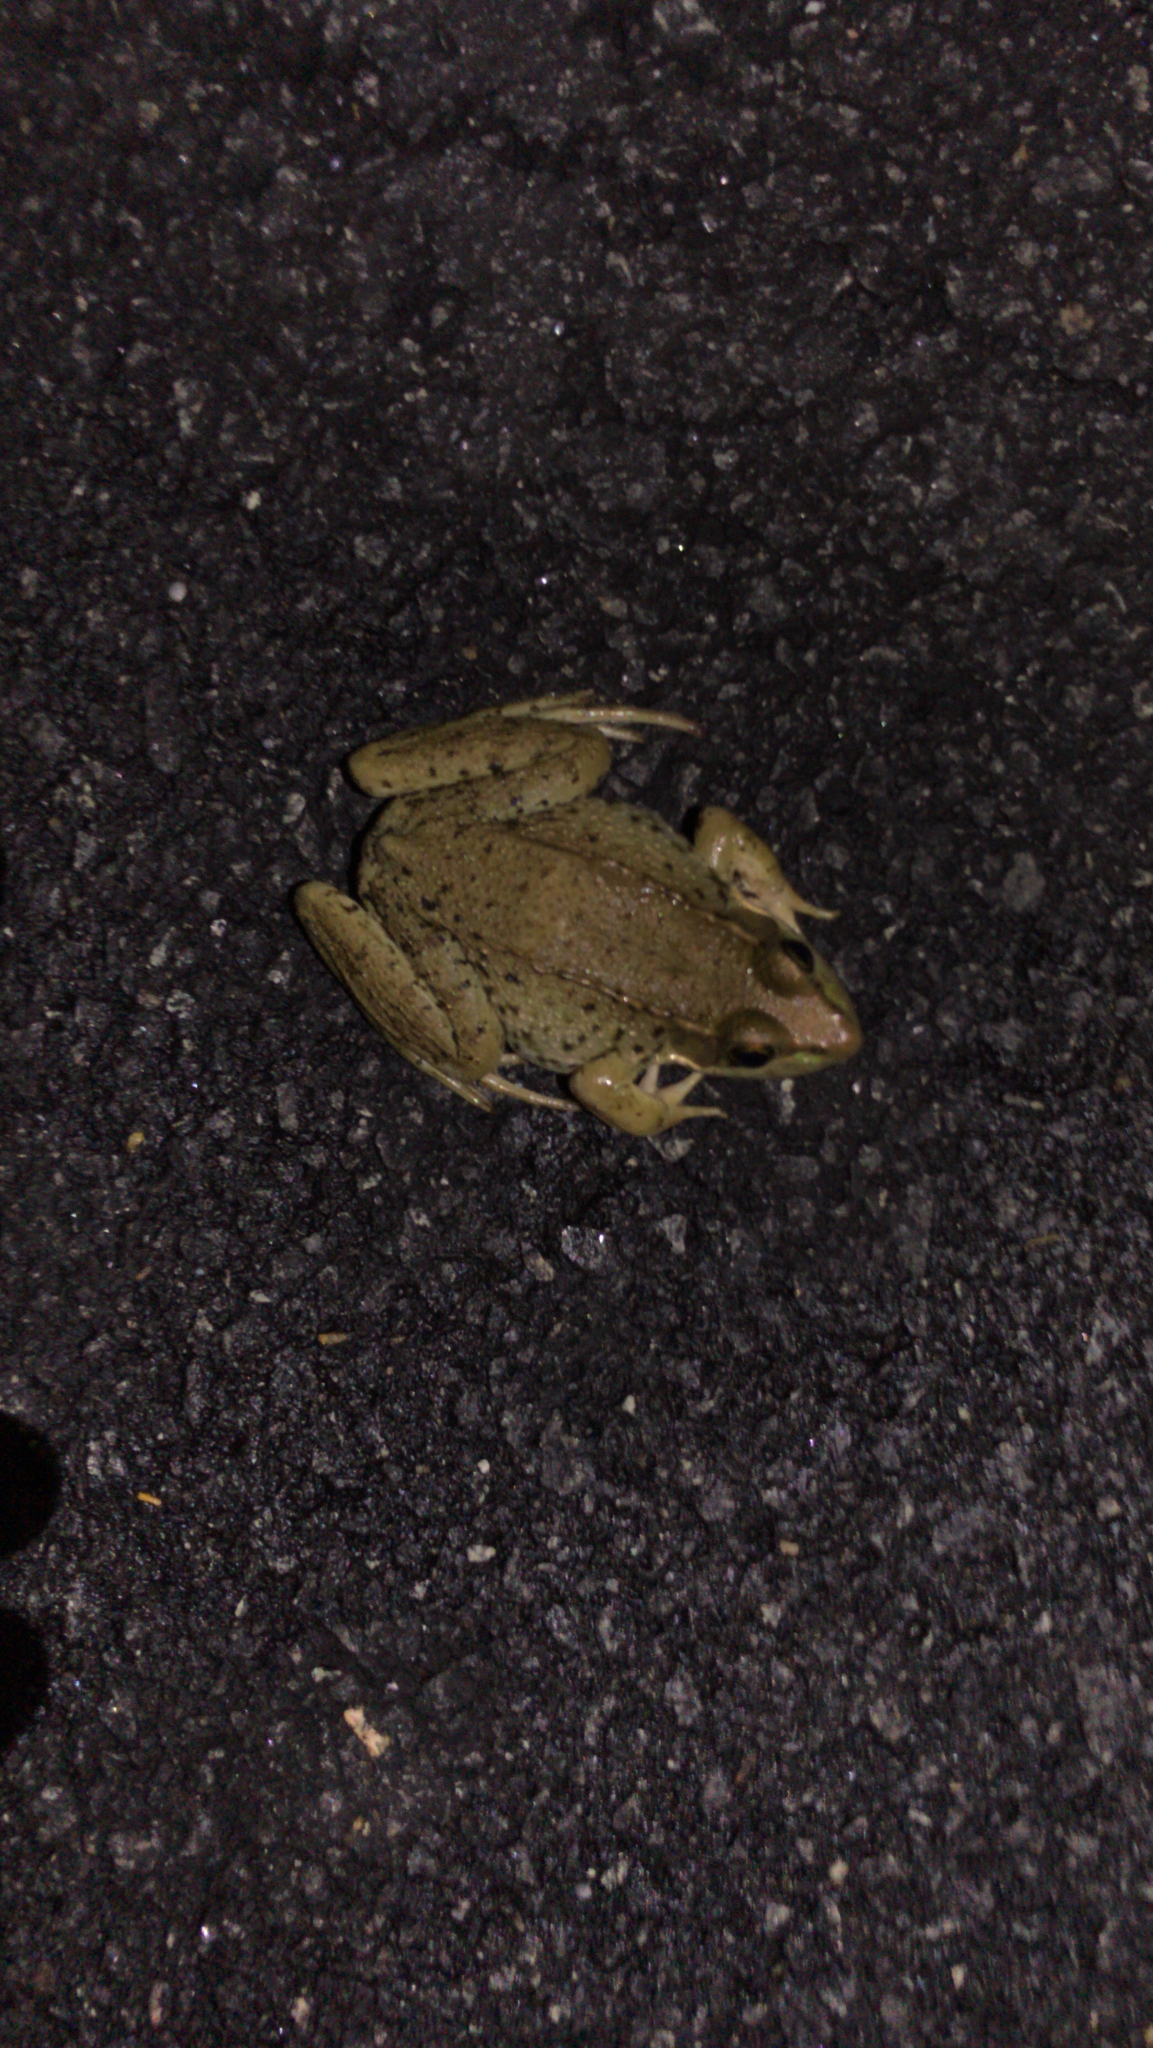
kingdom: Animalia
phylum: Chordata
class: Amphibia
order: Anura
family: Ranidae
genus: Lithobates
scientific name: Lithobates clamitans
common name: Green frog
